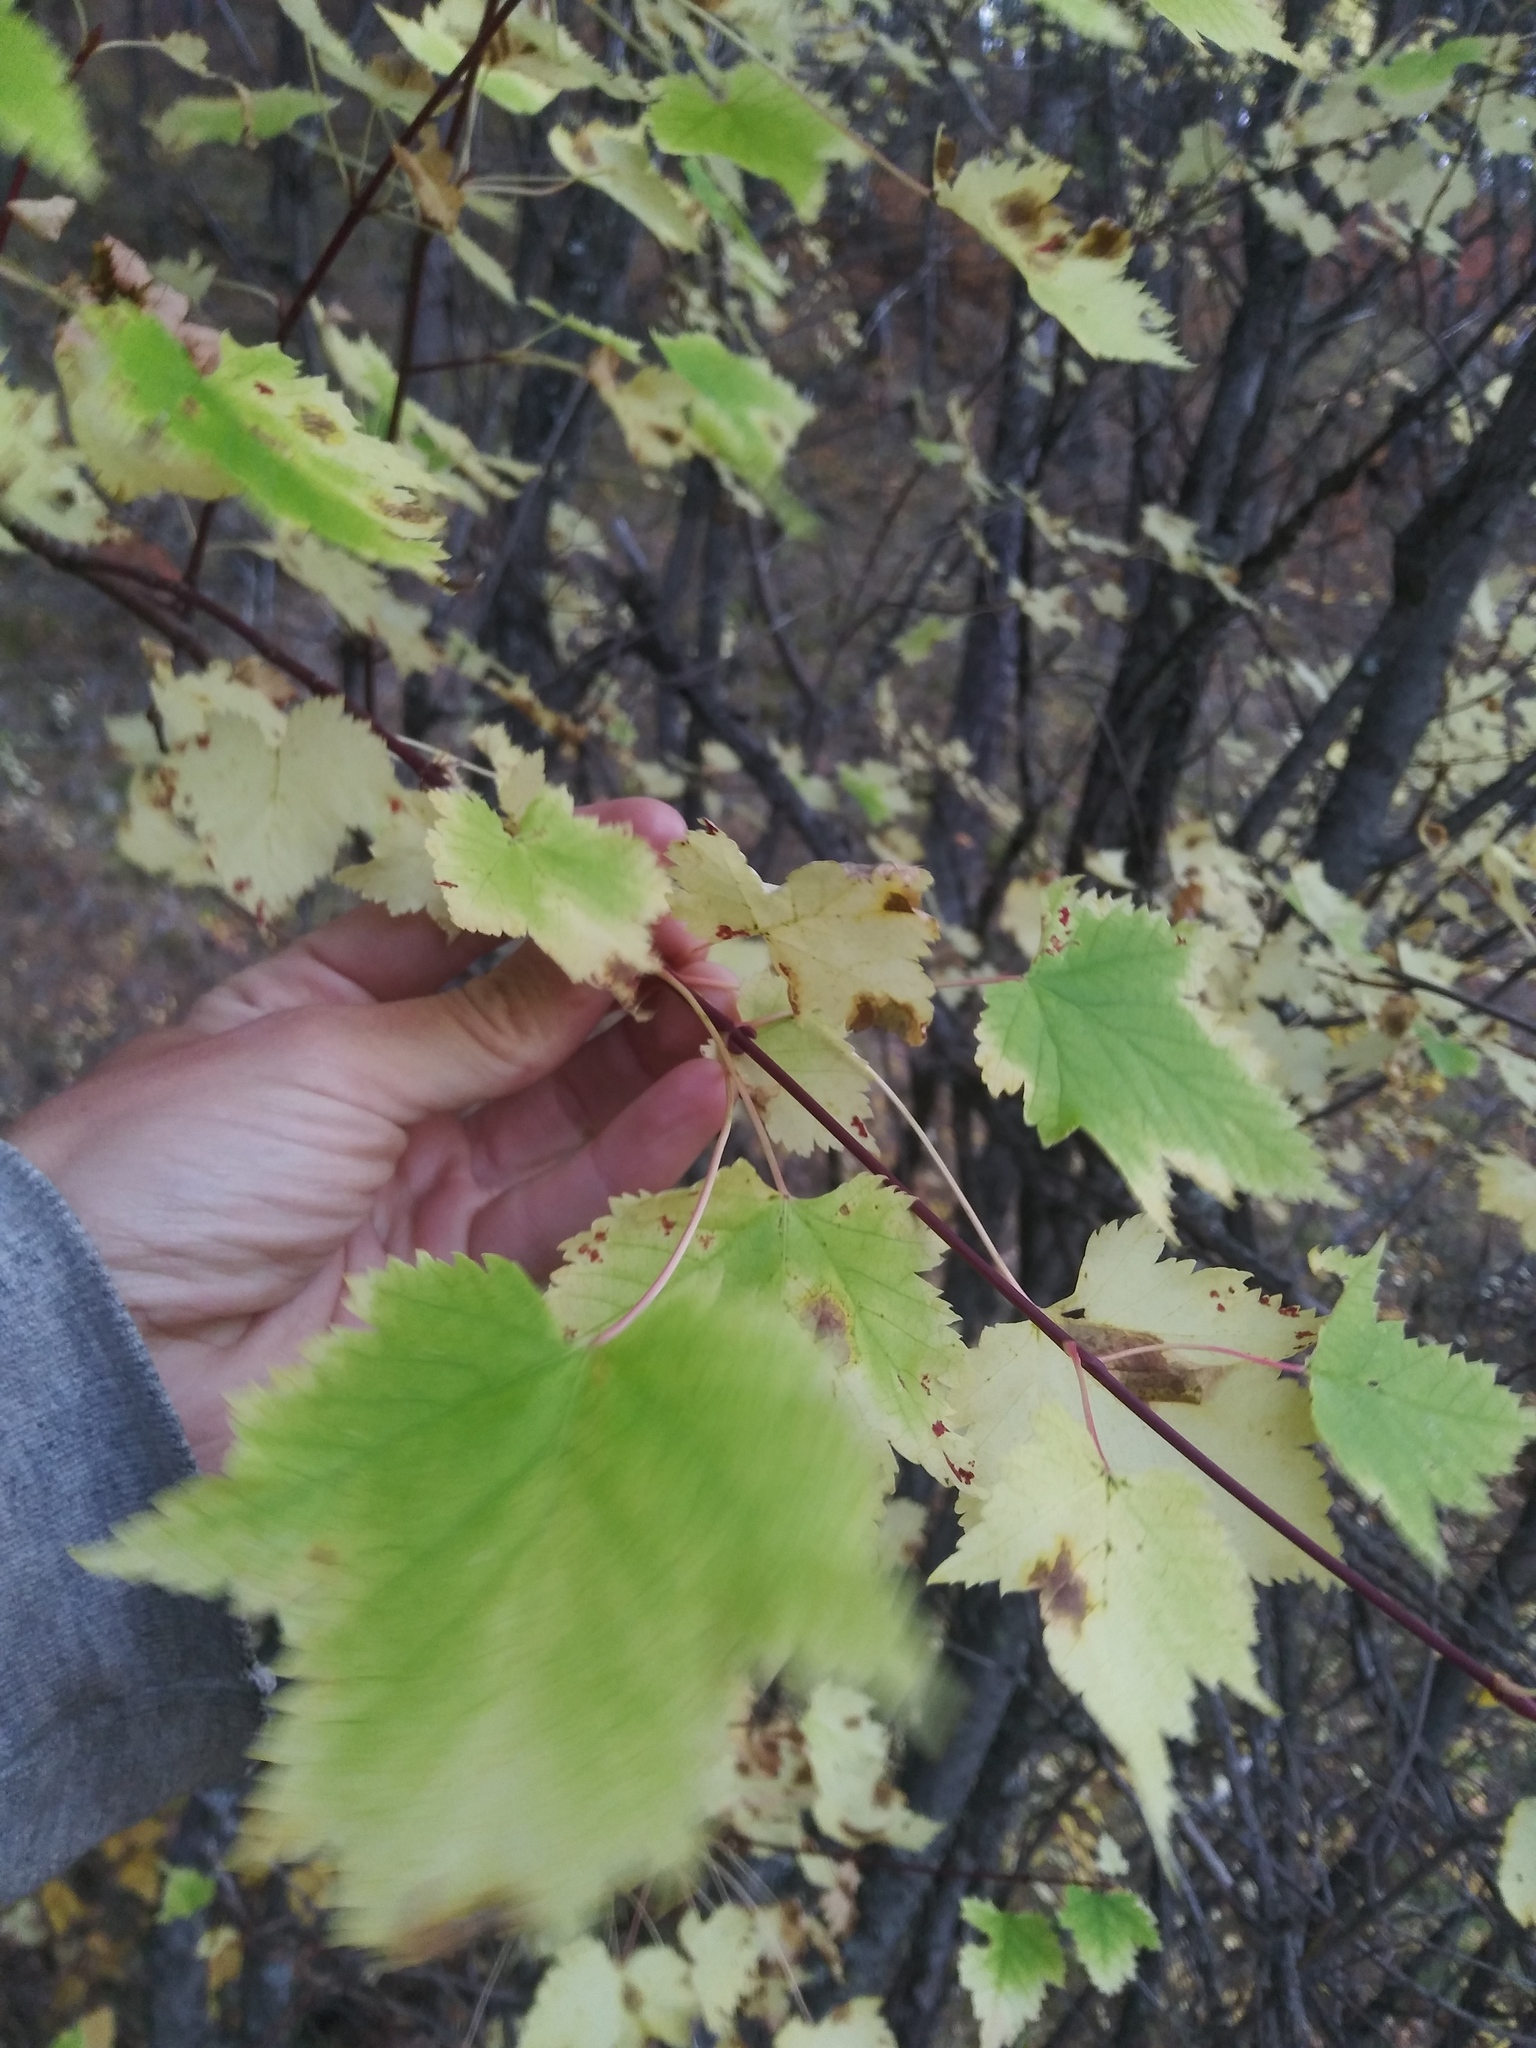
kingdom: Plantae
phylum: Tracheophyta
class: Magnoliopsida
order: Sapindales
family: Sapindaceae
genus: Acer
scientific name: Acer glabrum
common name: Rocky mountain maple
